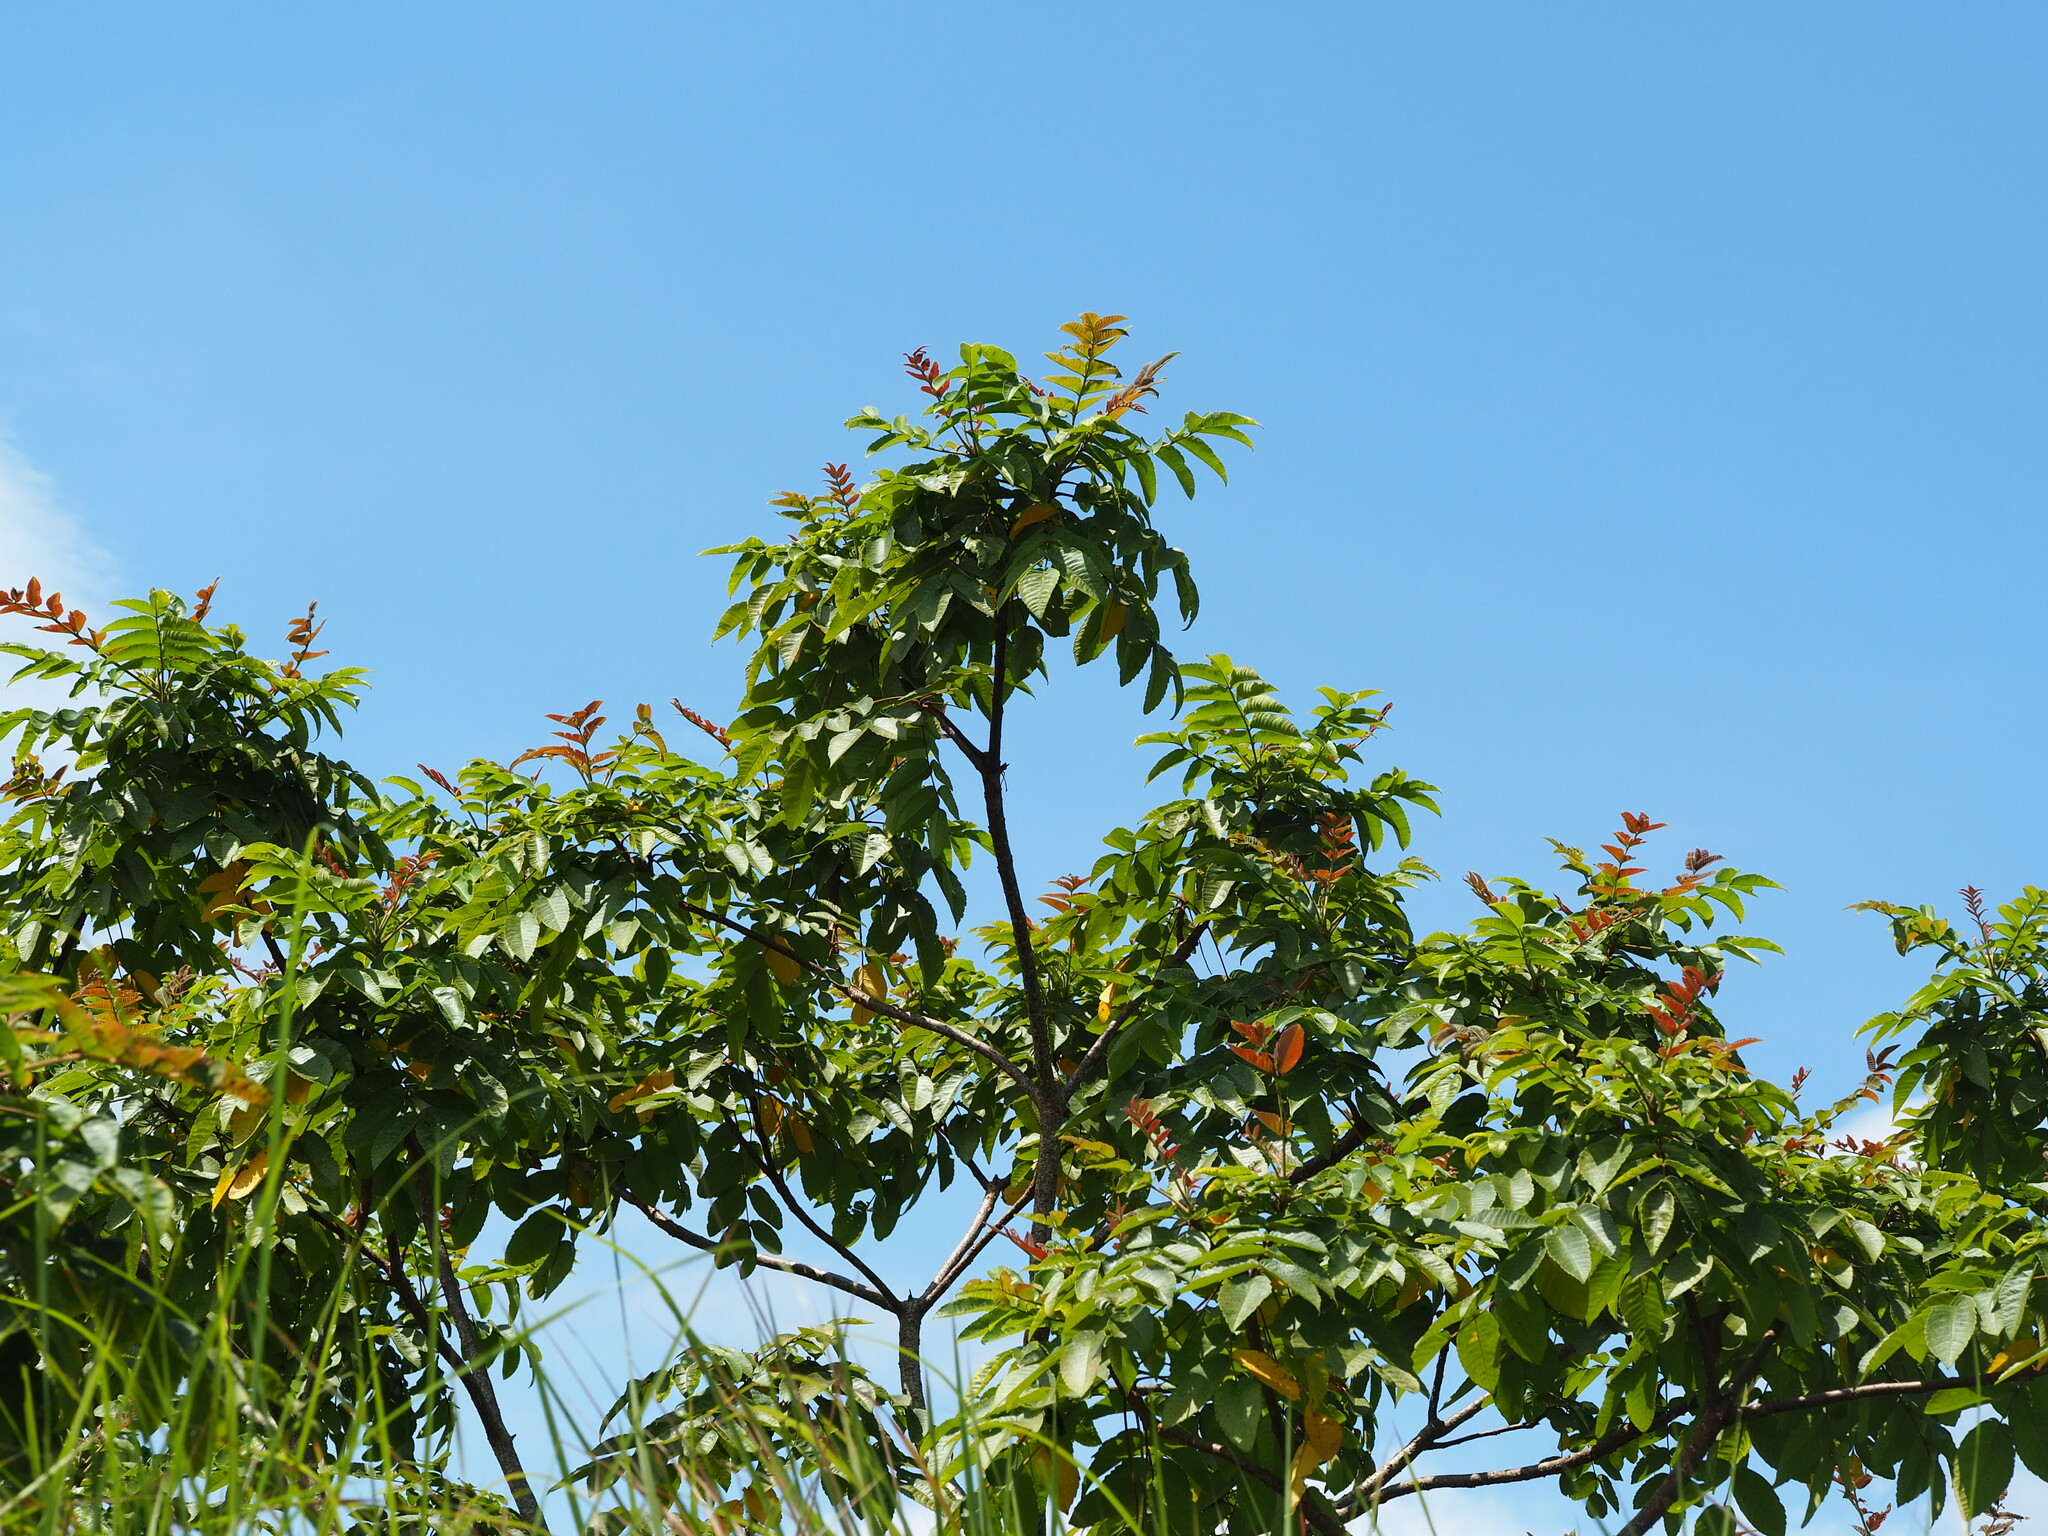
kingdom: Plantae
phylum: Tracheophyta
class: Magnoliopsida
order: Sapindales
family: Anacardiaceae
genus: Rhus
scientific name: Rhus chinensis
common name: Chinese gall
